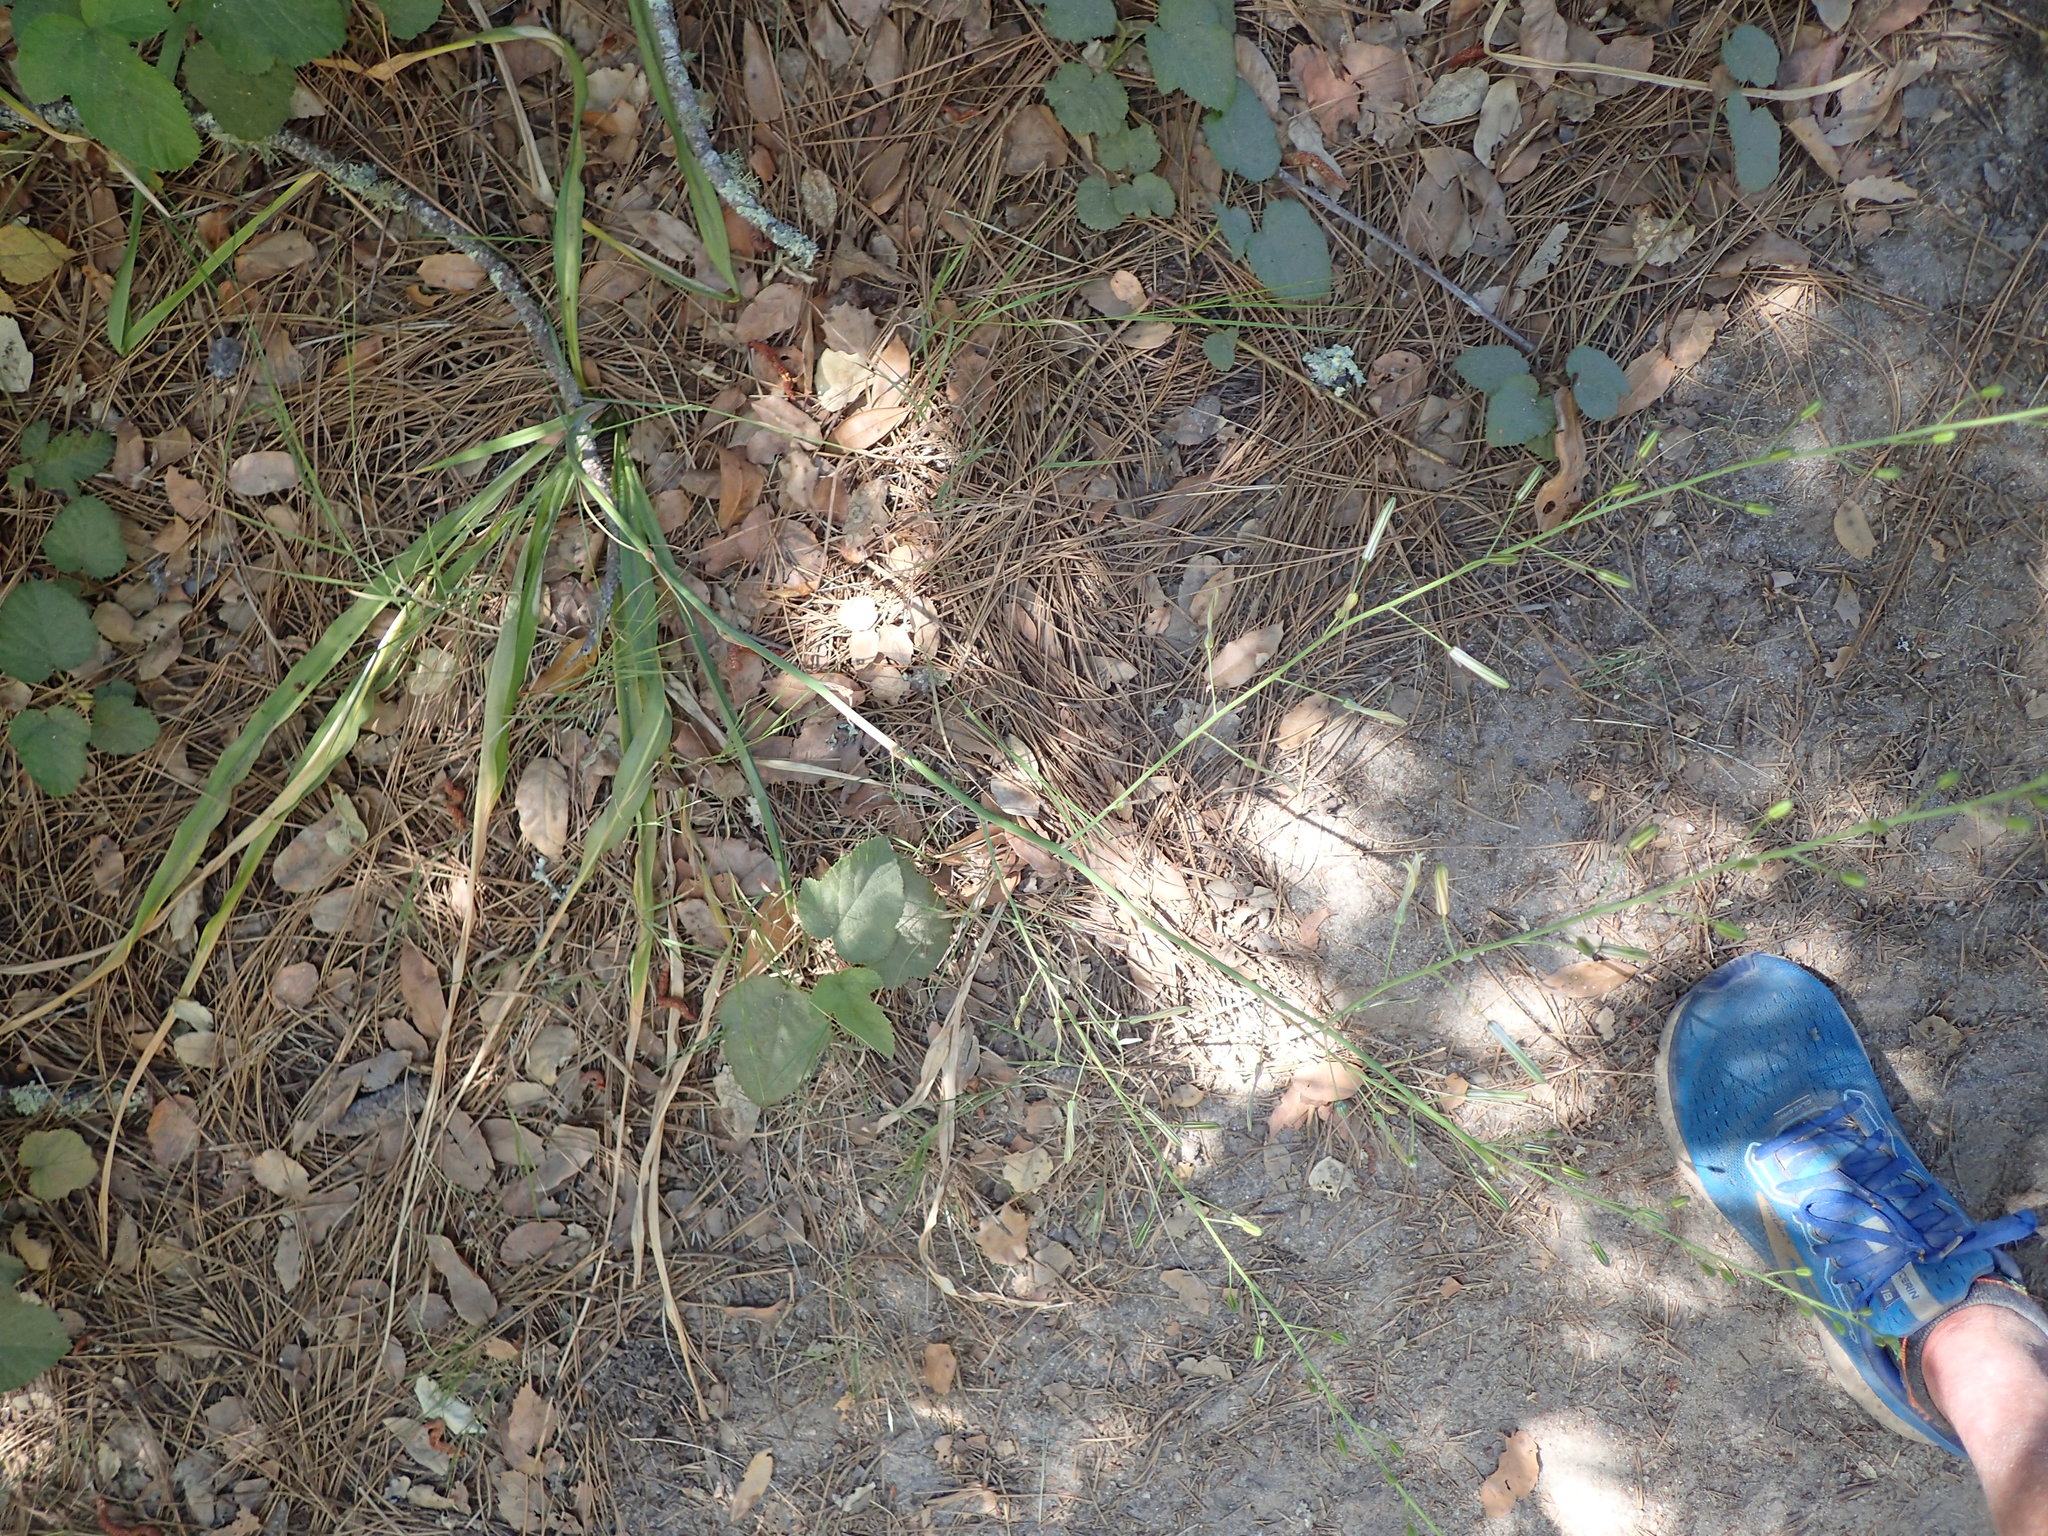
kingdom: Plantae
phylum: Tracheophyta
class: Liliopsida
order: Asparagales
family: Asparagaceae
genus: Chlorogalum
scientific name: Chlorogalum pomeridianum
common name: Amole
